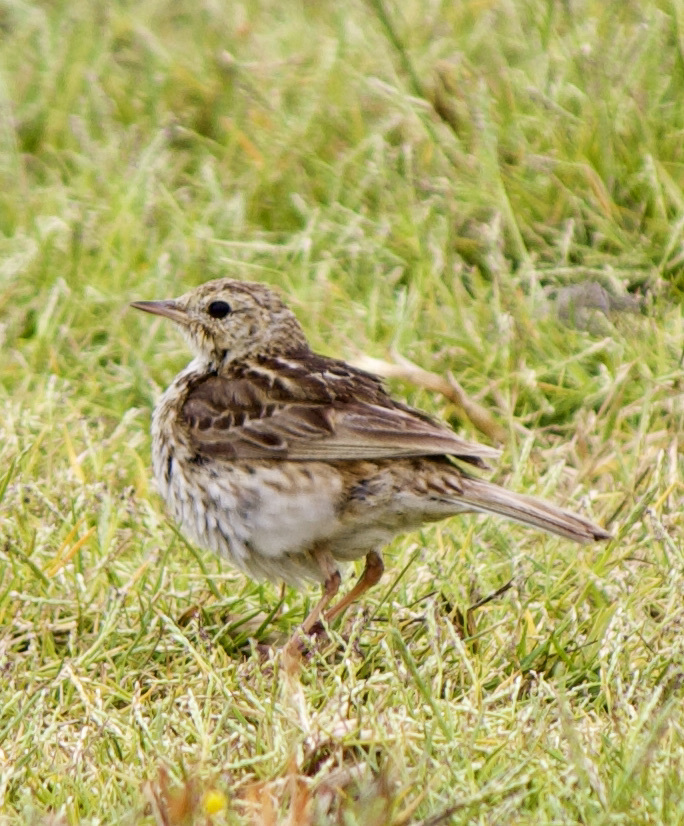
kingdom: Animalia
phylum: Chordata
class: Aves
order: Passeriformes
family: Motacillidae
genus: Anthus
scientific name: Anthus correndera
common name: Correndera pipit
